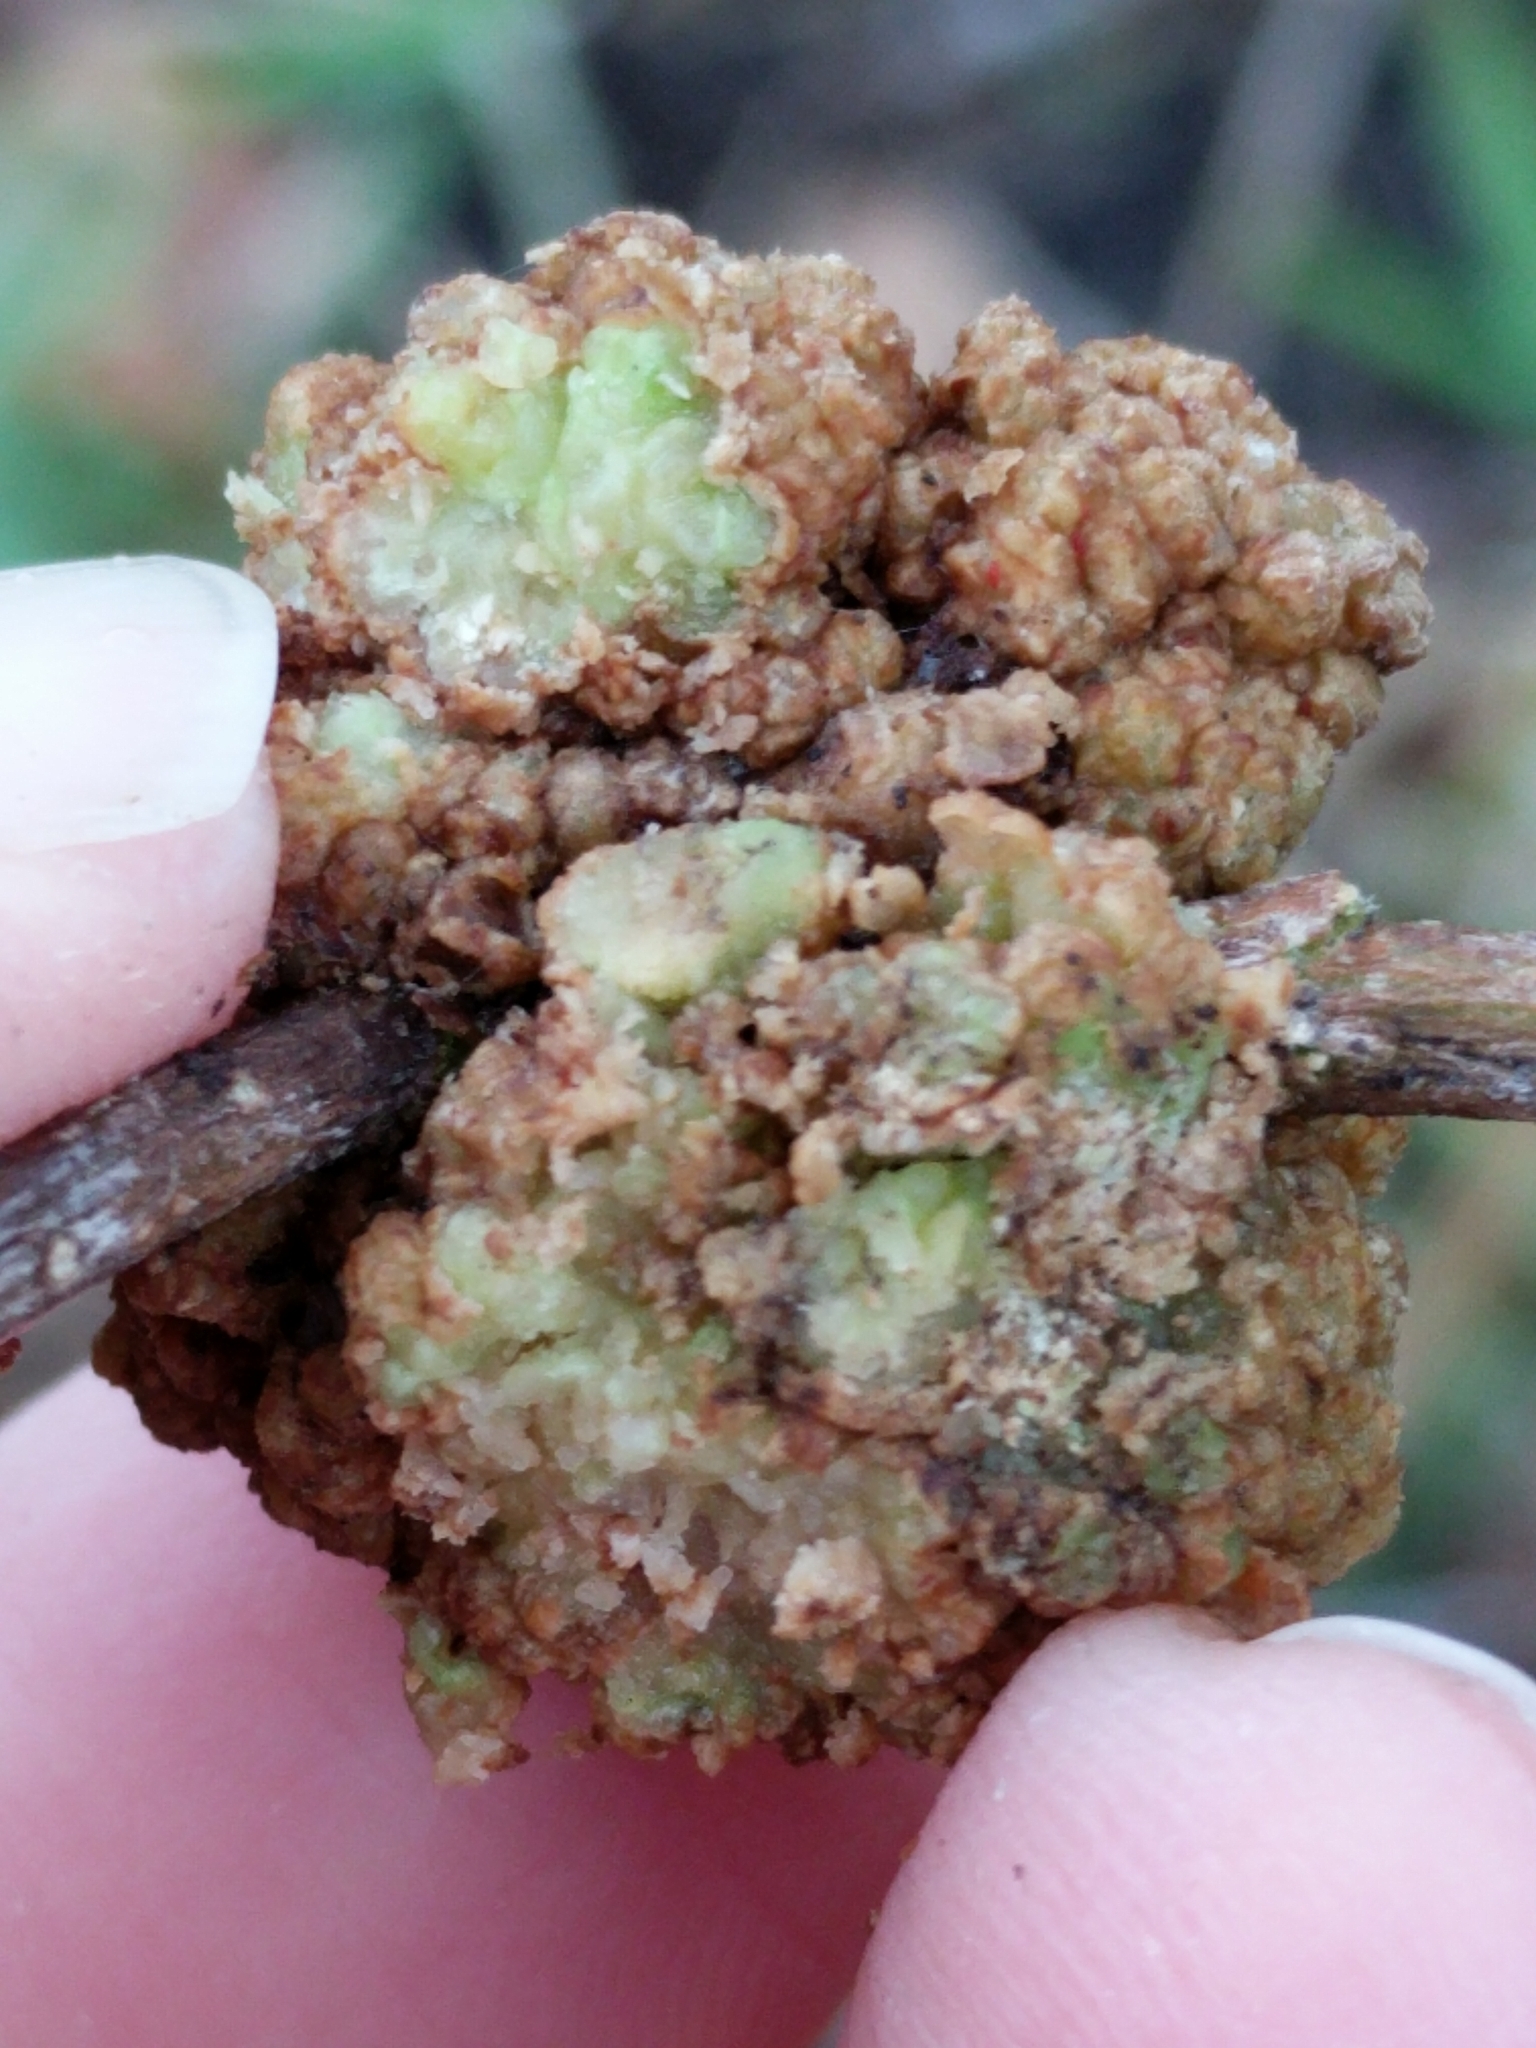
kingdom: Bacteria
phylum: Proteobacteria
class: Alphaproteobacteria
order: Rhizobiales
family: Rhizobiaceae
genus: Rhizobium
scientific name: Rhizobium Agrobacterium radiobacter
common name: Bacterial crown gall
